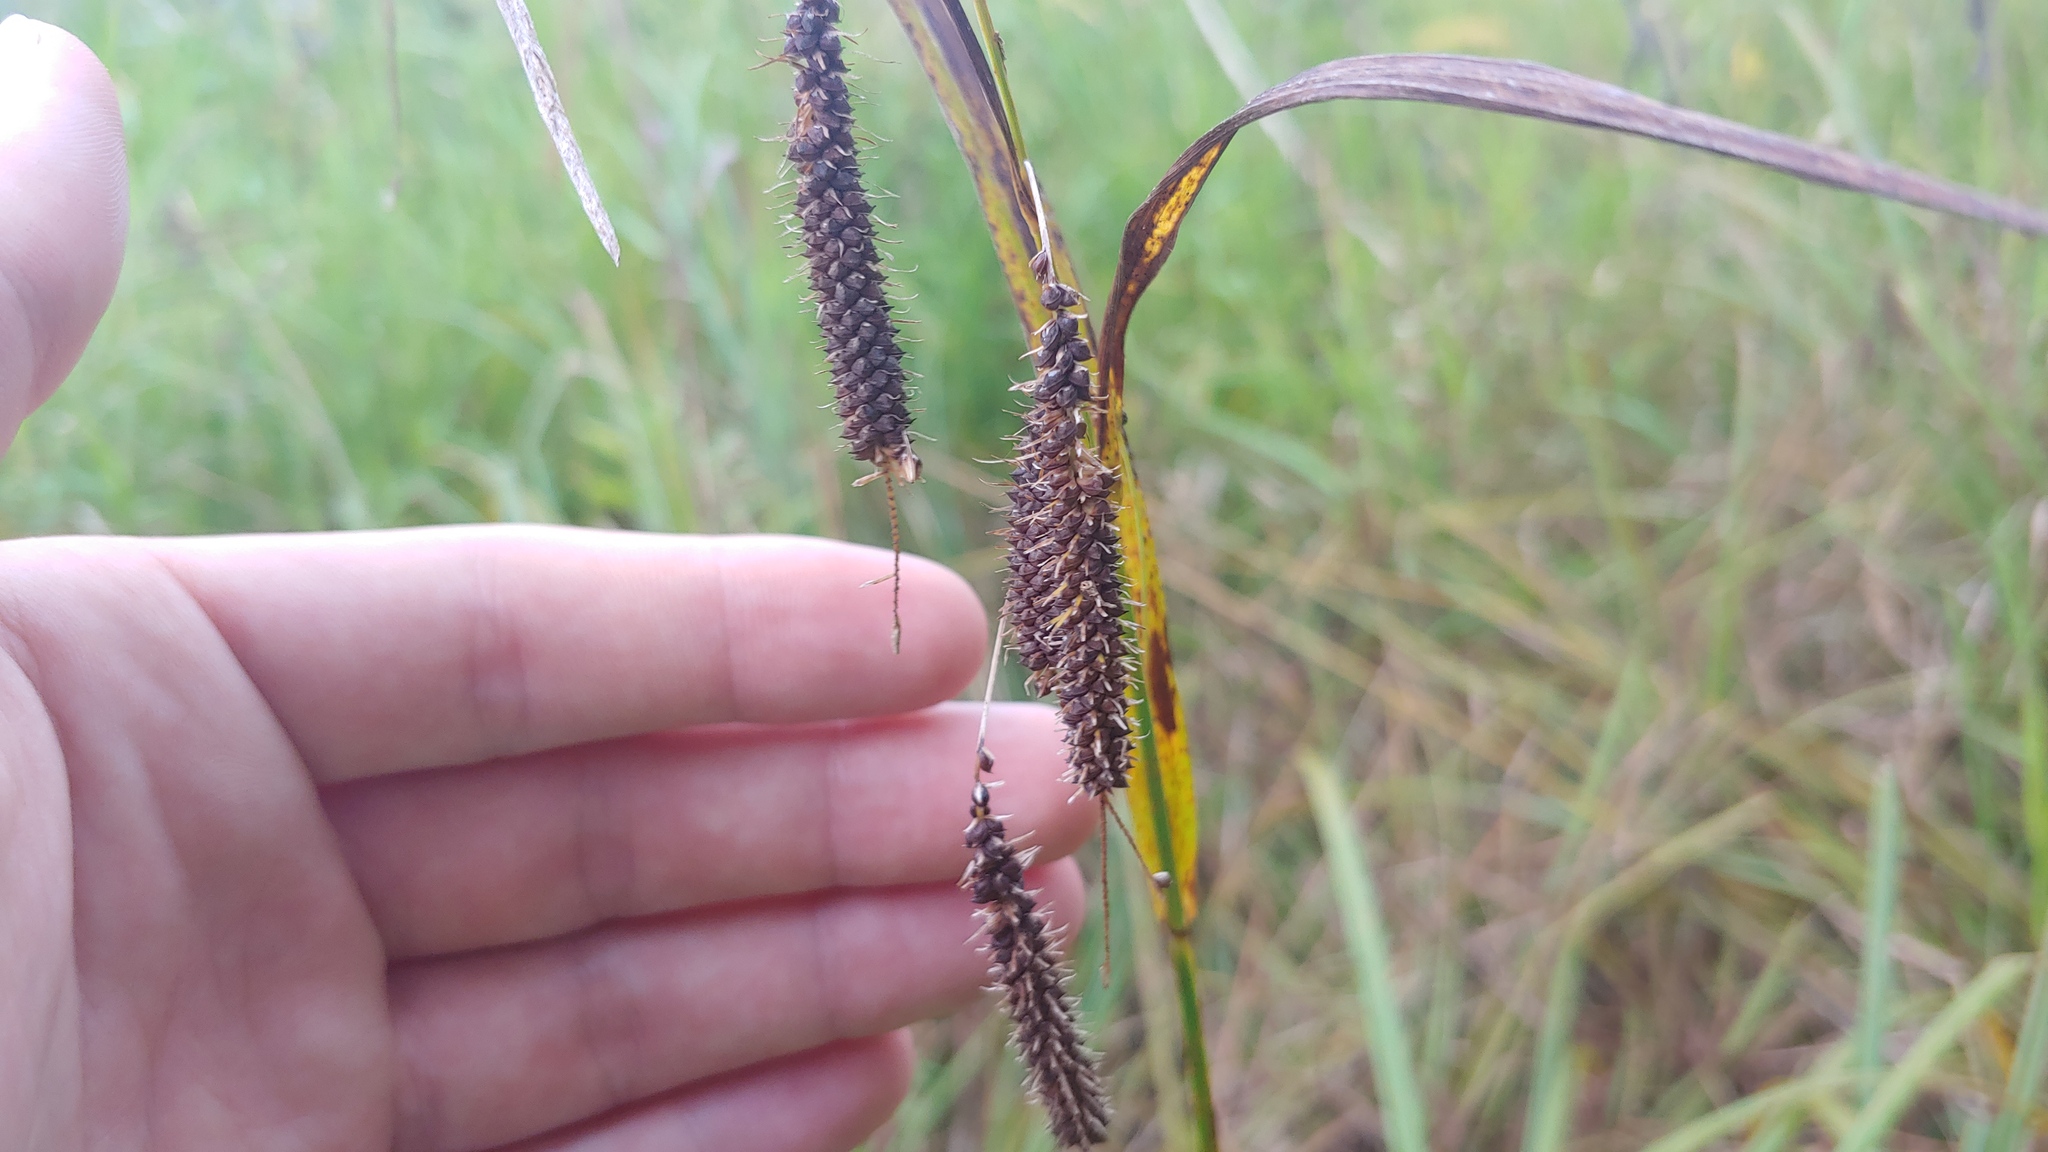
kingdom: Plantae
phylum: Tracheophyta
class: Liliopsida
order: Poales
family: Cyperaceae
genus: Carex
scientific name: Carex crinita
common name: Fringed sedge
